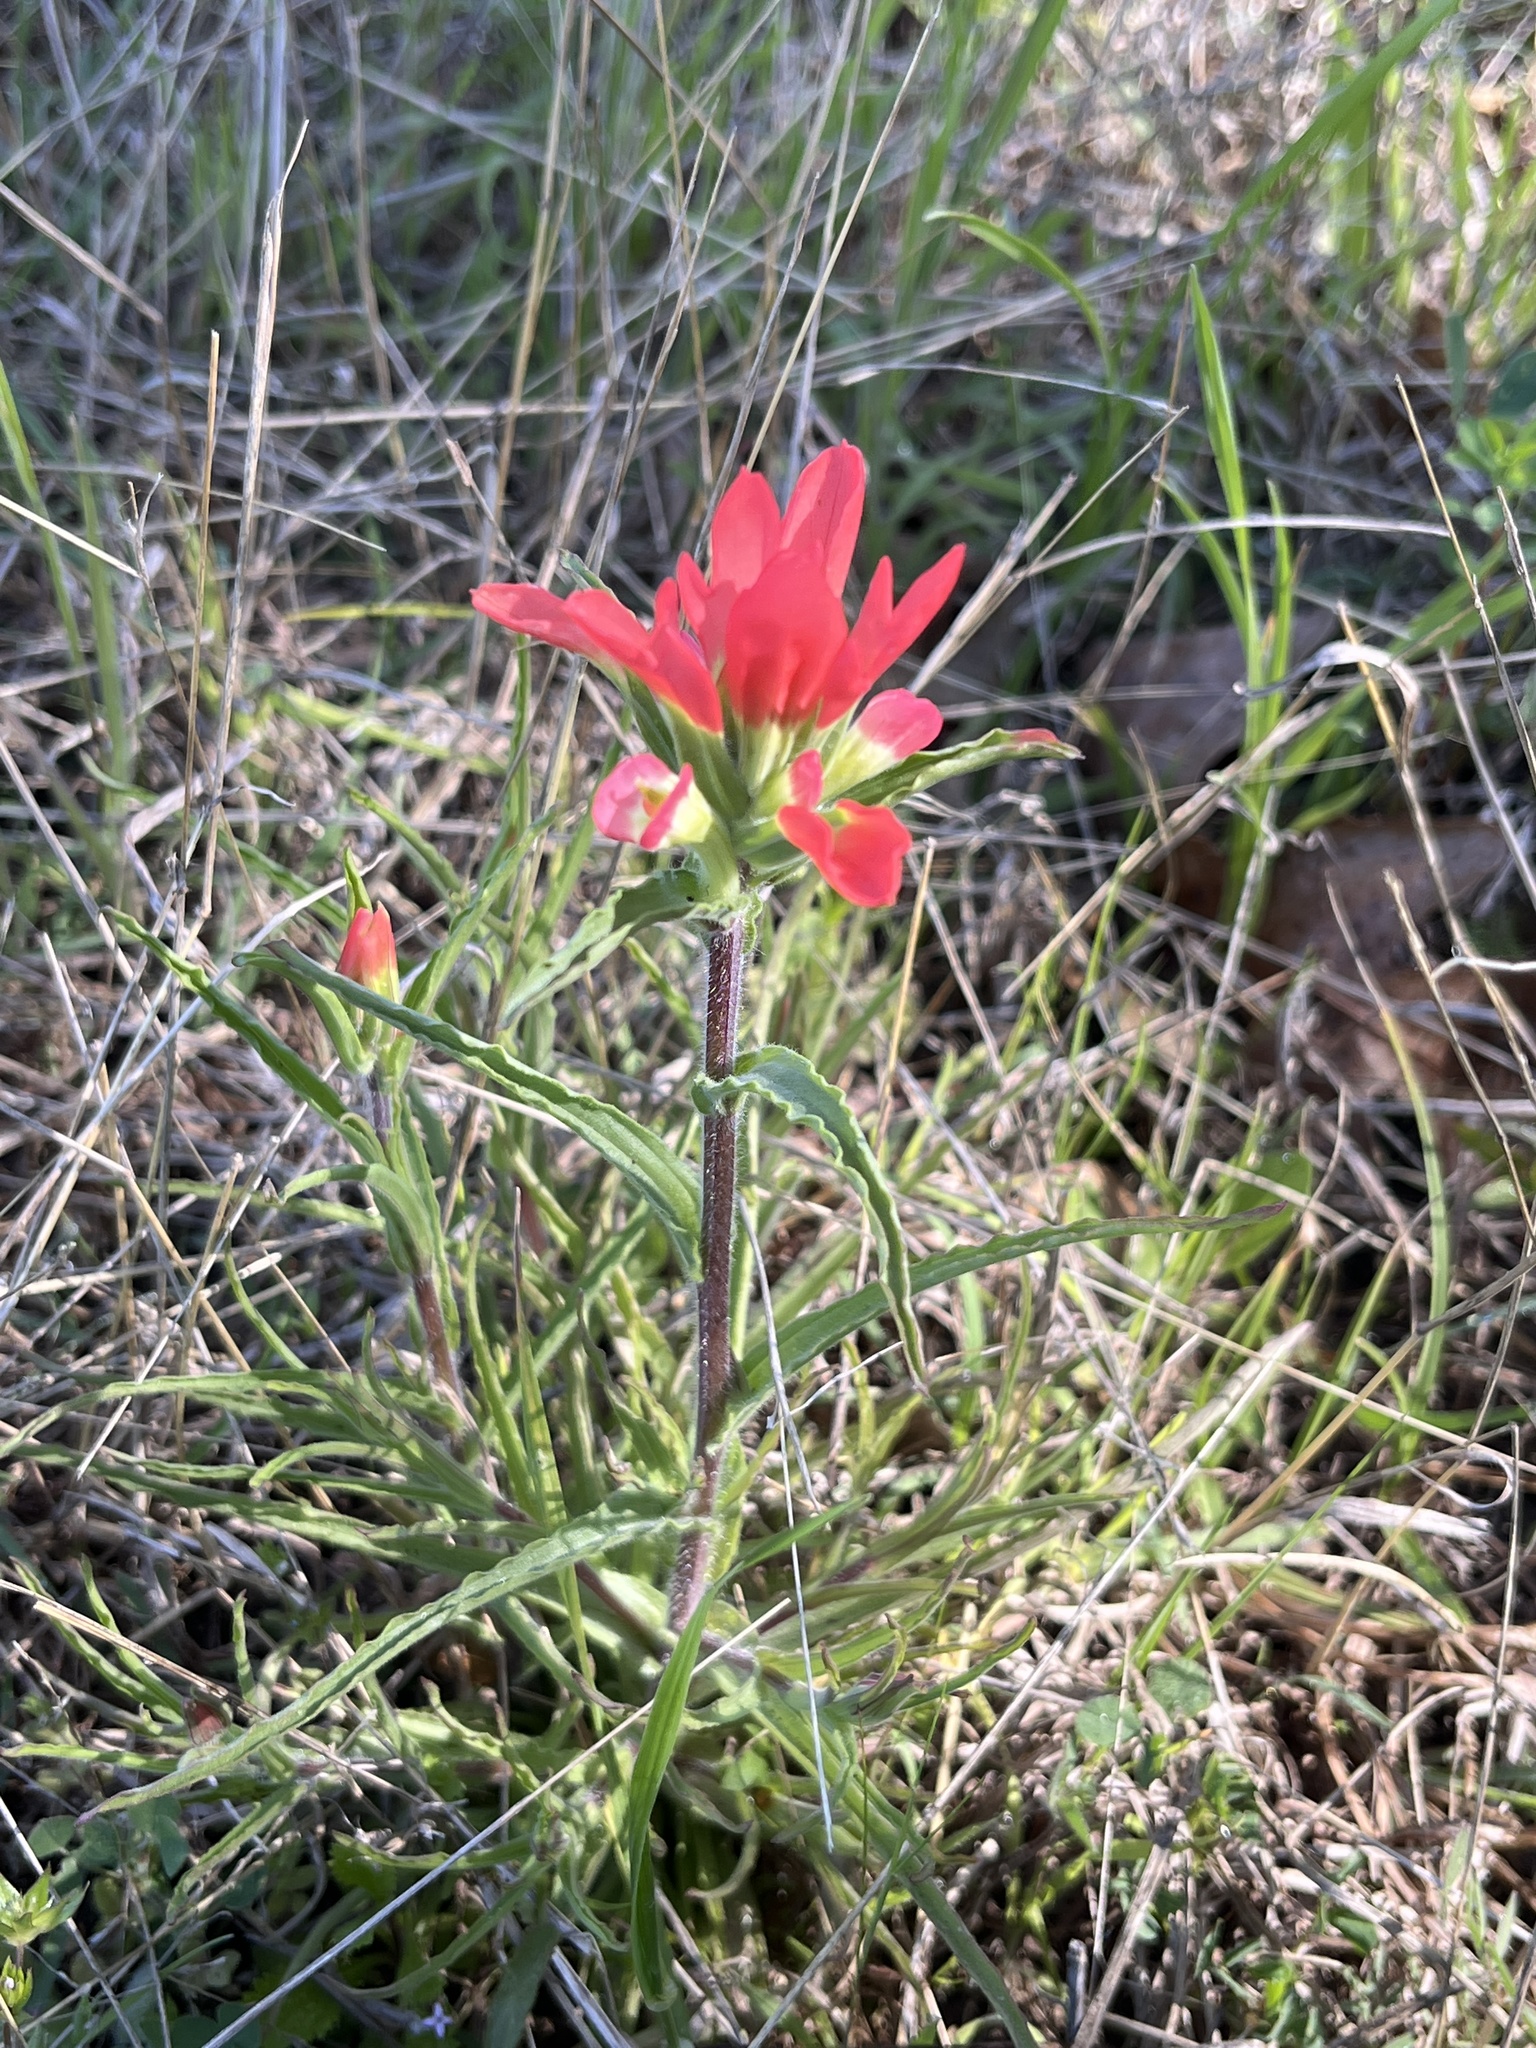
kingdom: Plantae
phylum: Tracheophyta
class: Magnoliopsida
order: Lamiales
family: Orobanchaceae
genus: Castilleja
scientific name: Castilleja indivisa
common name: Texas paintbrush
